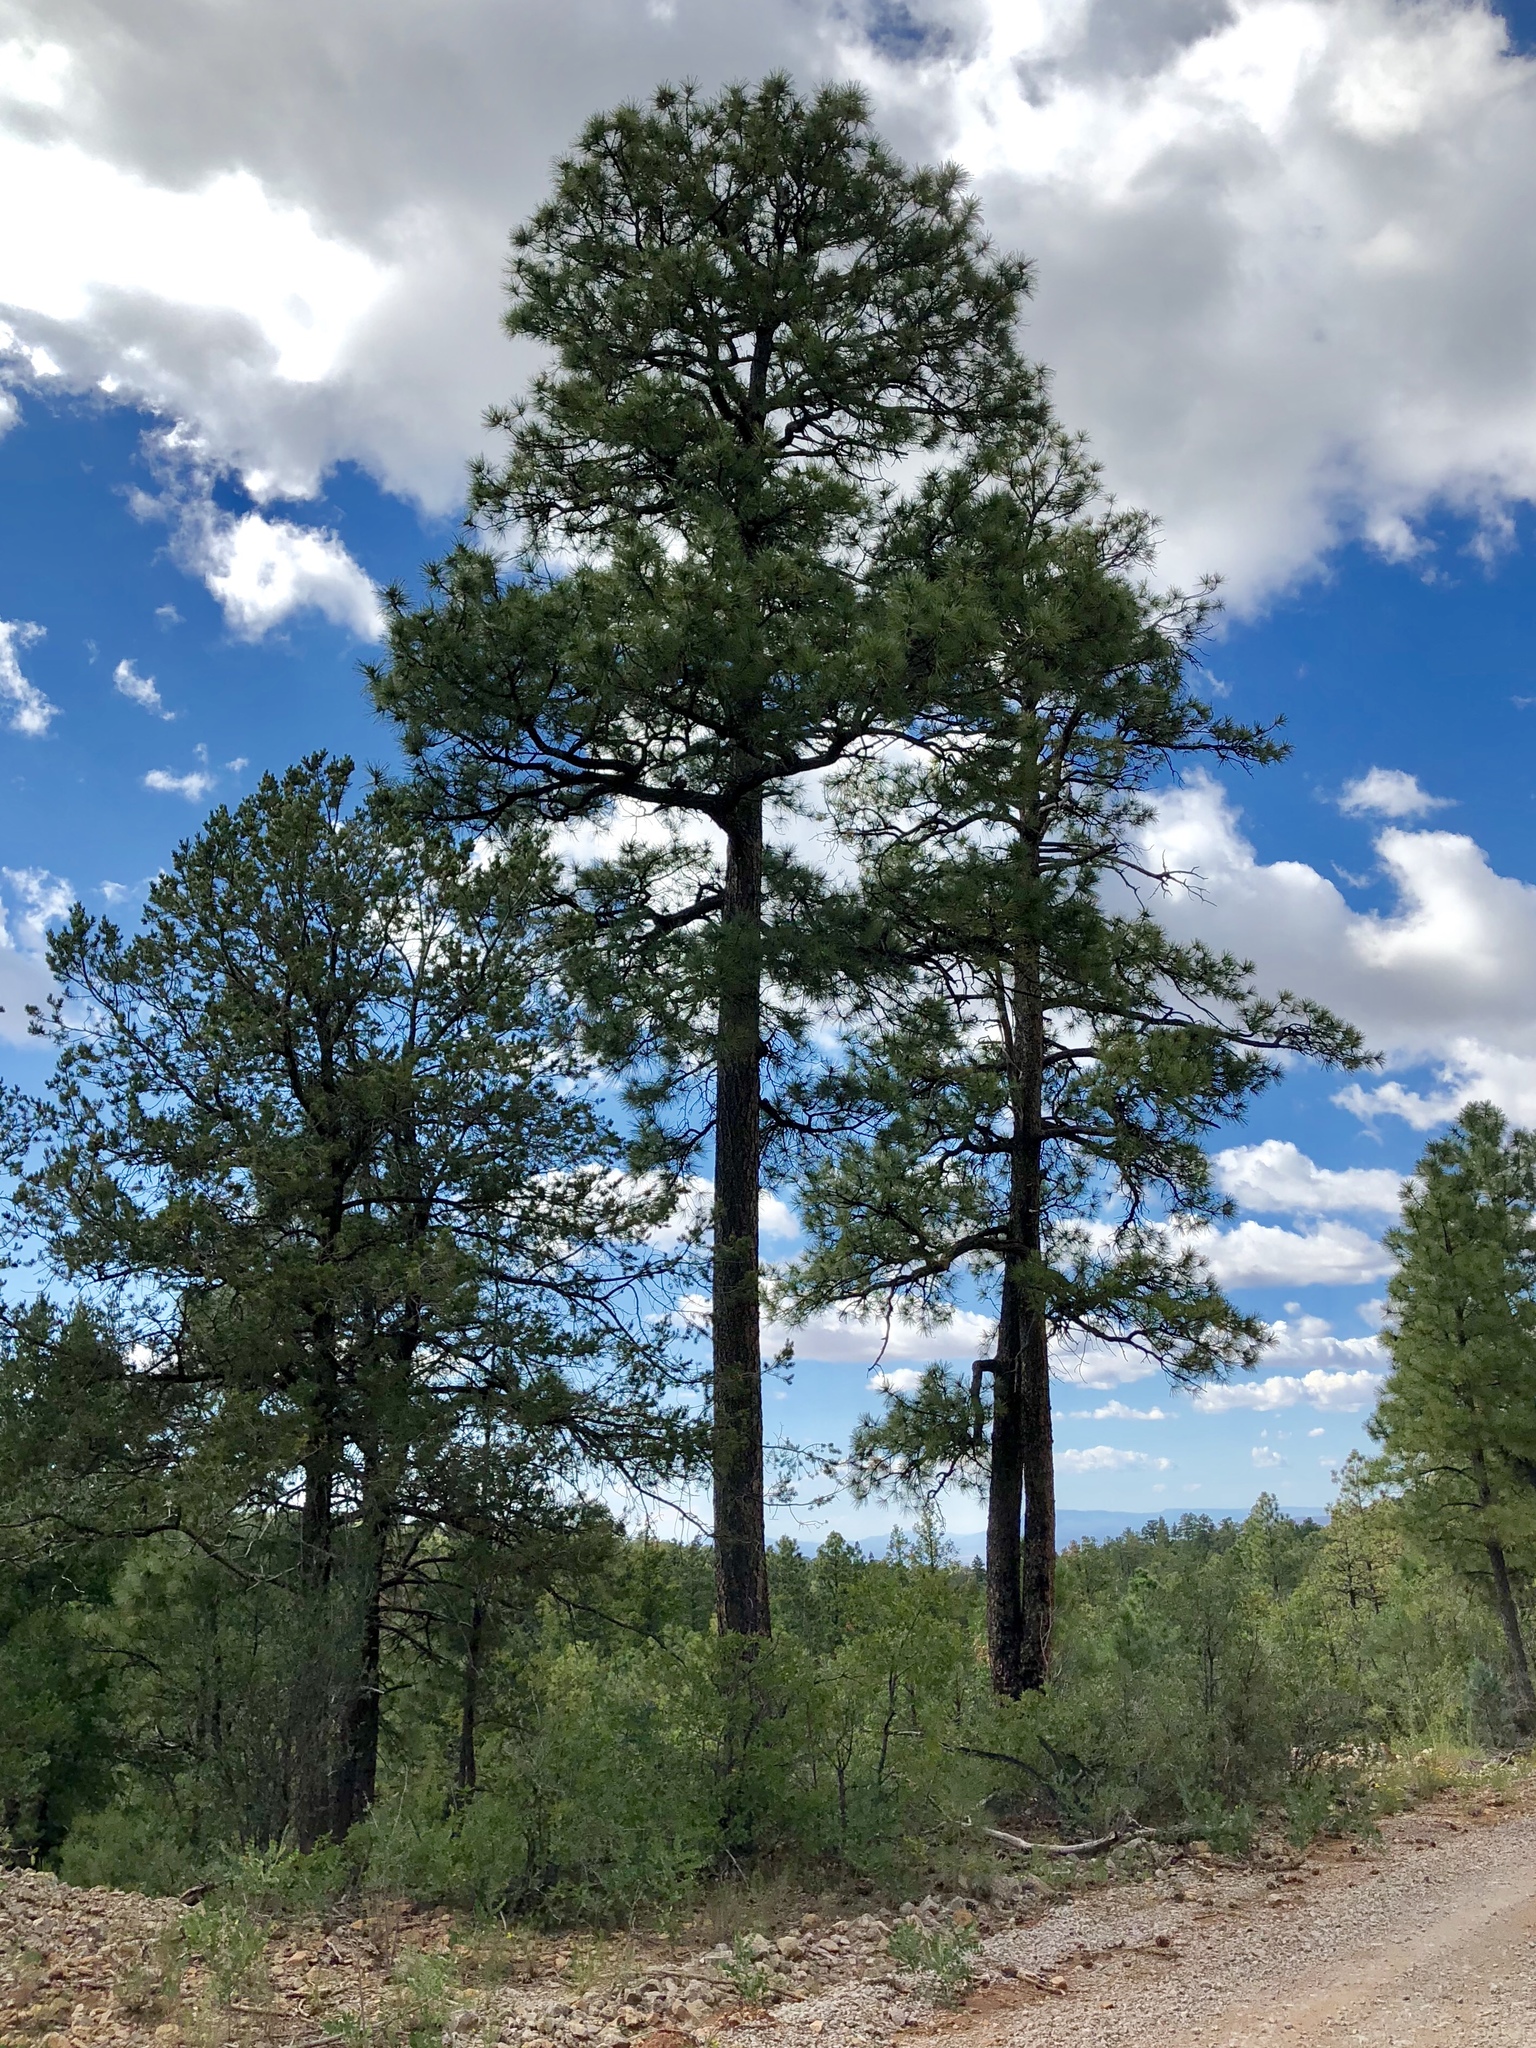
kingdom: Plantae
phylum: Tracheophyta
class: Pinopsida
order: Pinales
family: Pinaceae
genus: Pinus
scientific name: Pinus ponderosa
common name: Western yellow-pine
